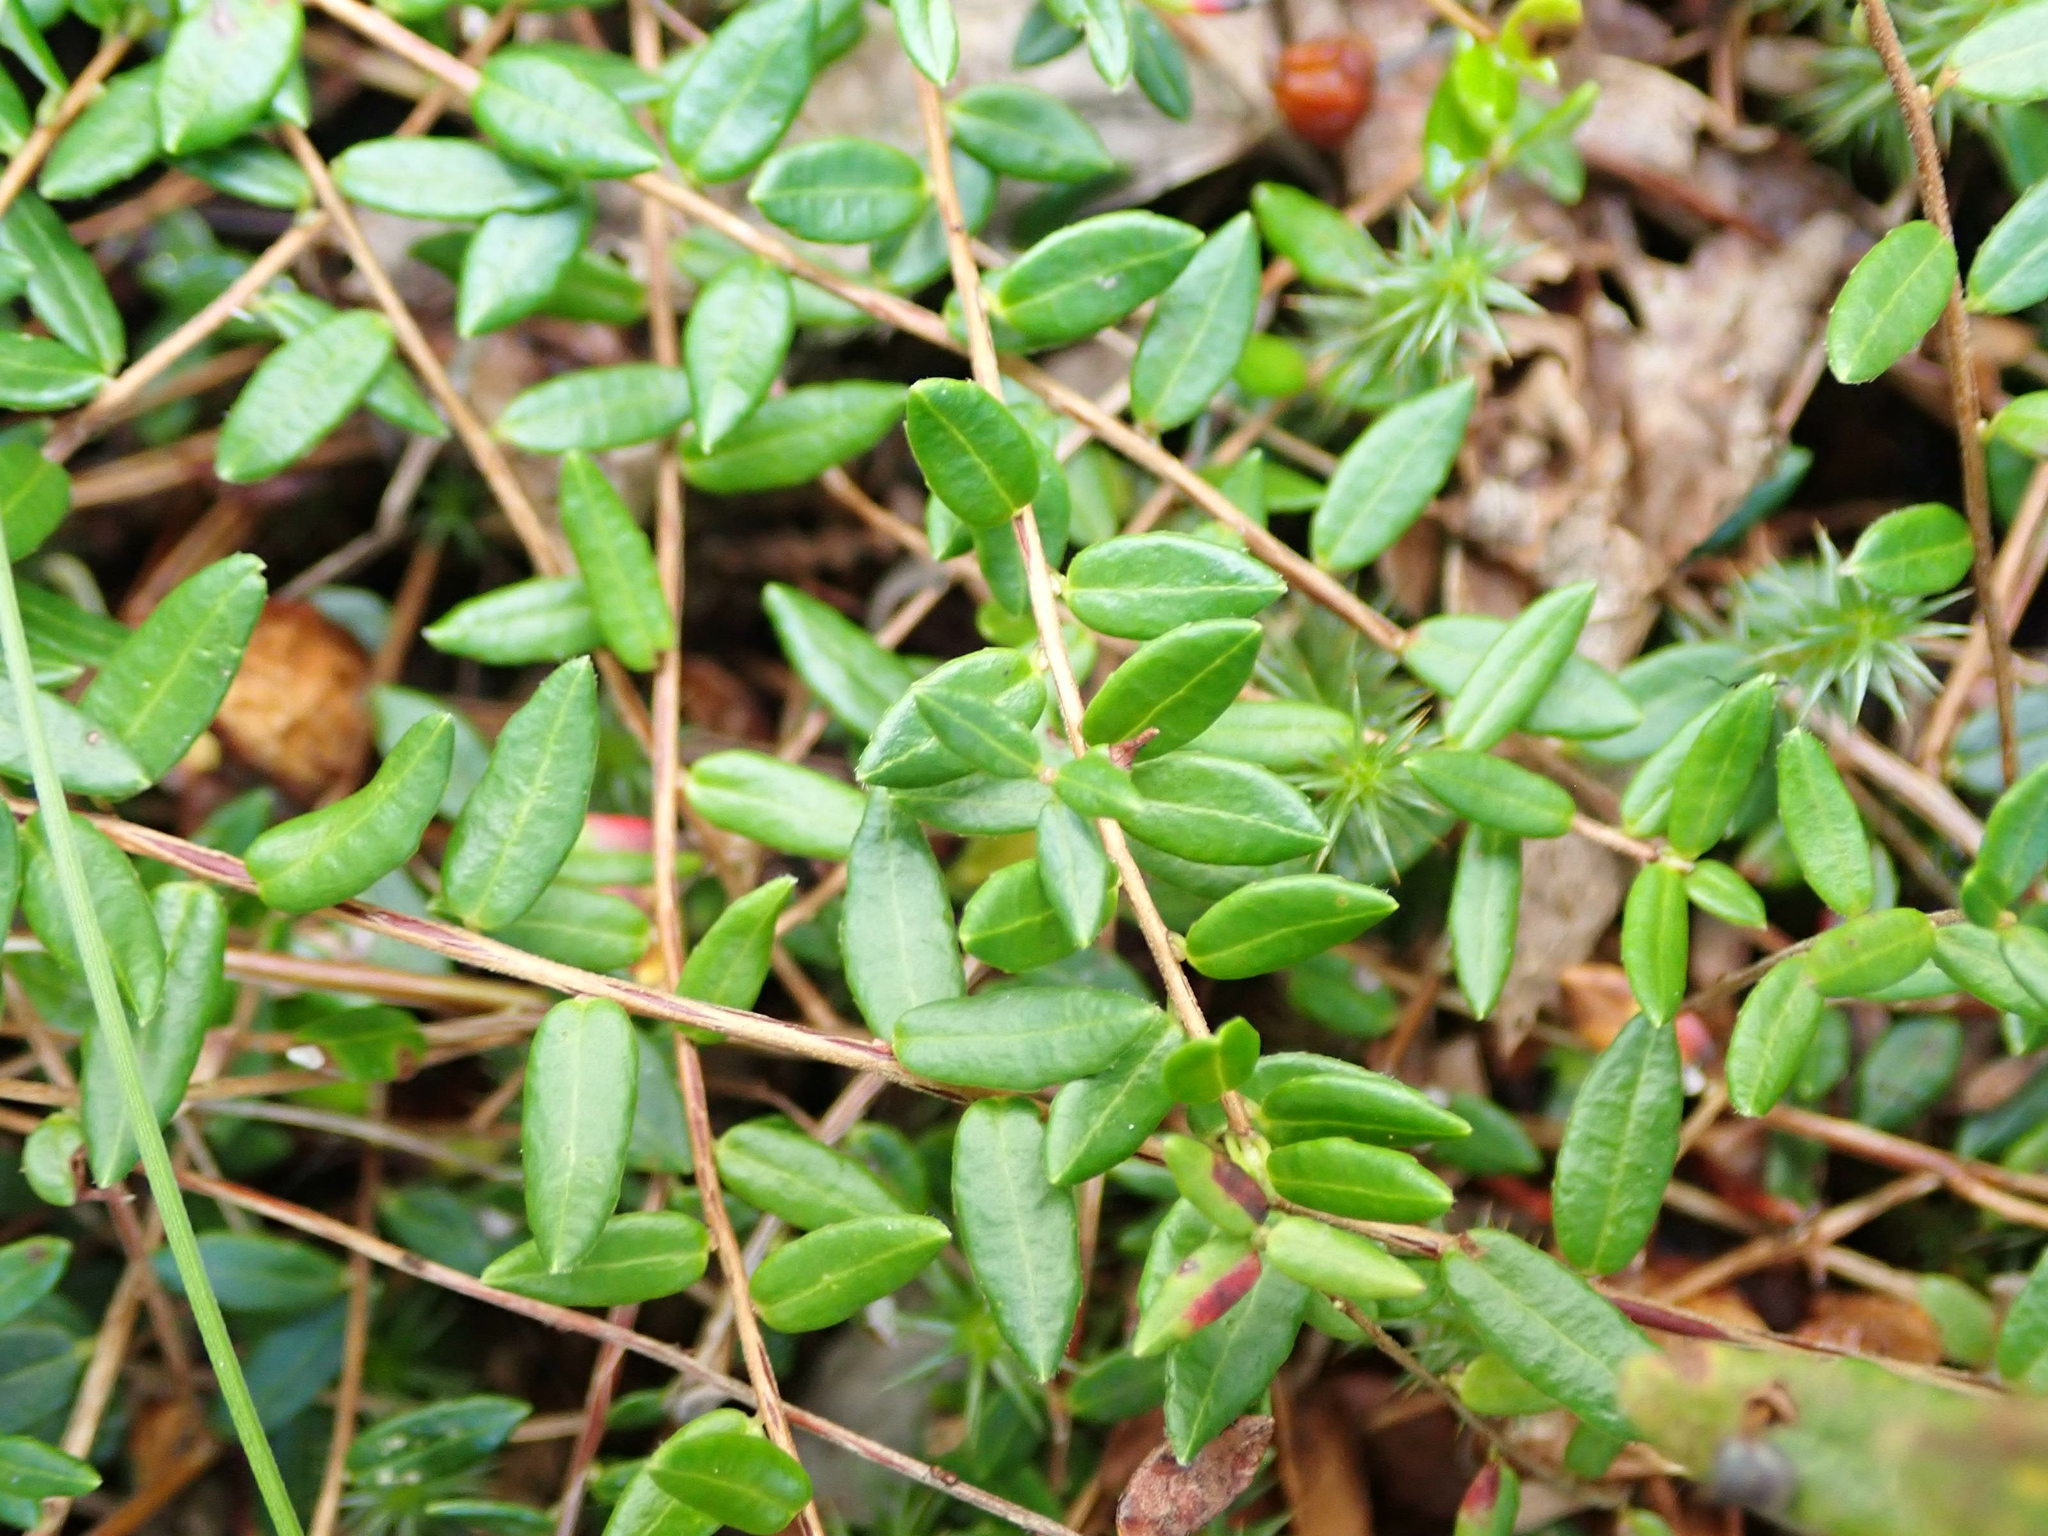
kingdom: Plantae
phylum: Tracheophyta
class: Magnoliopsida
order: Ericales
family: Ericaceae
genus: Vaccinium
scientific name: Vaccinium oxycoccos
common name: Cranberry
